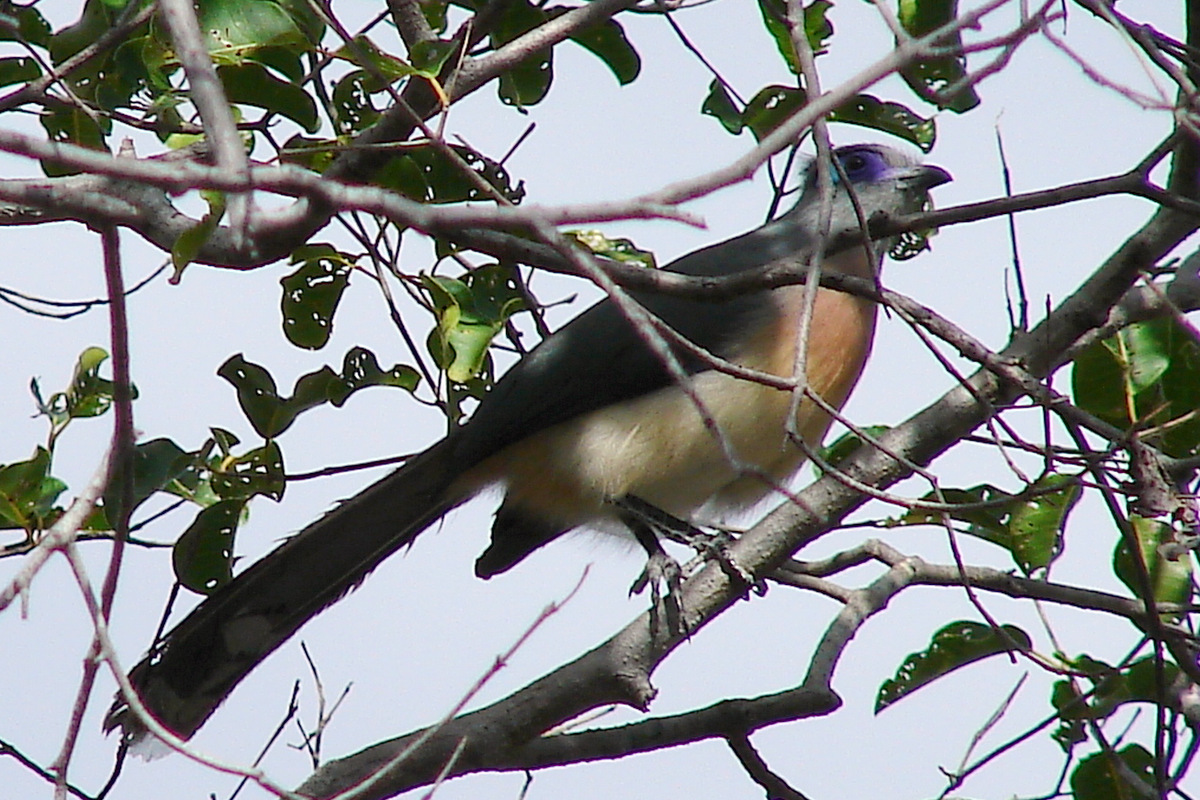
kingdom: Animalia
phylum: Chordata
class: Aves
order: Cuculiformes
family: Cuculidae
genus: Coua
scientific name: Coua cristata
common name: Crested coua
